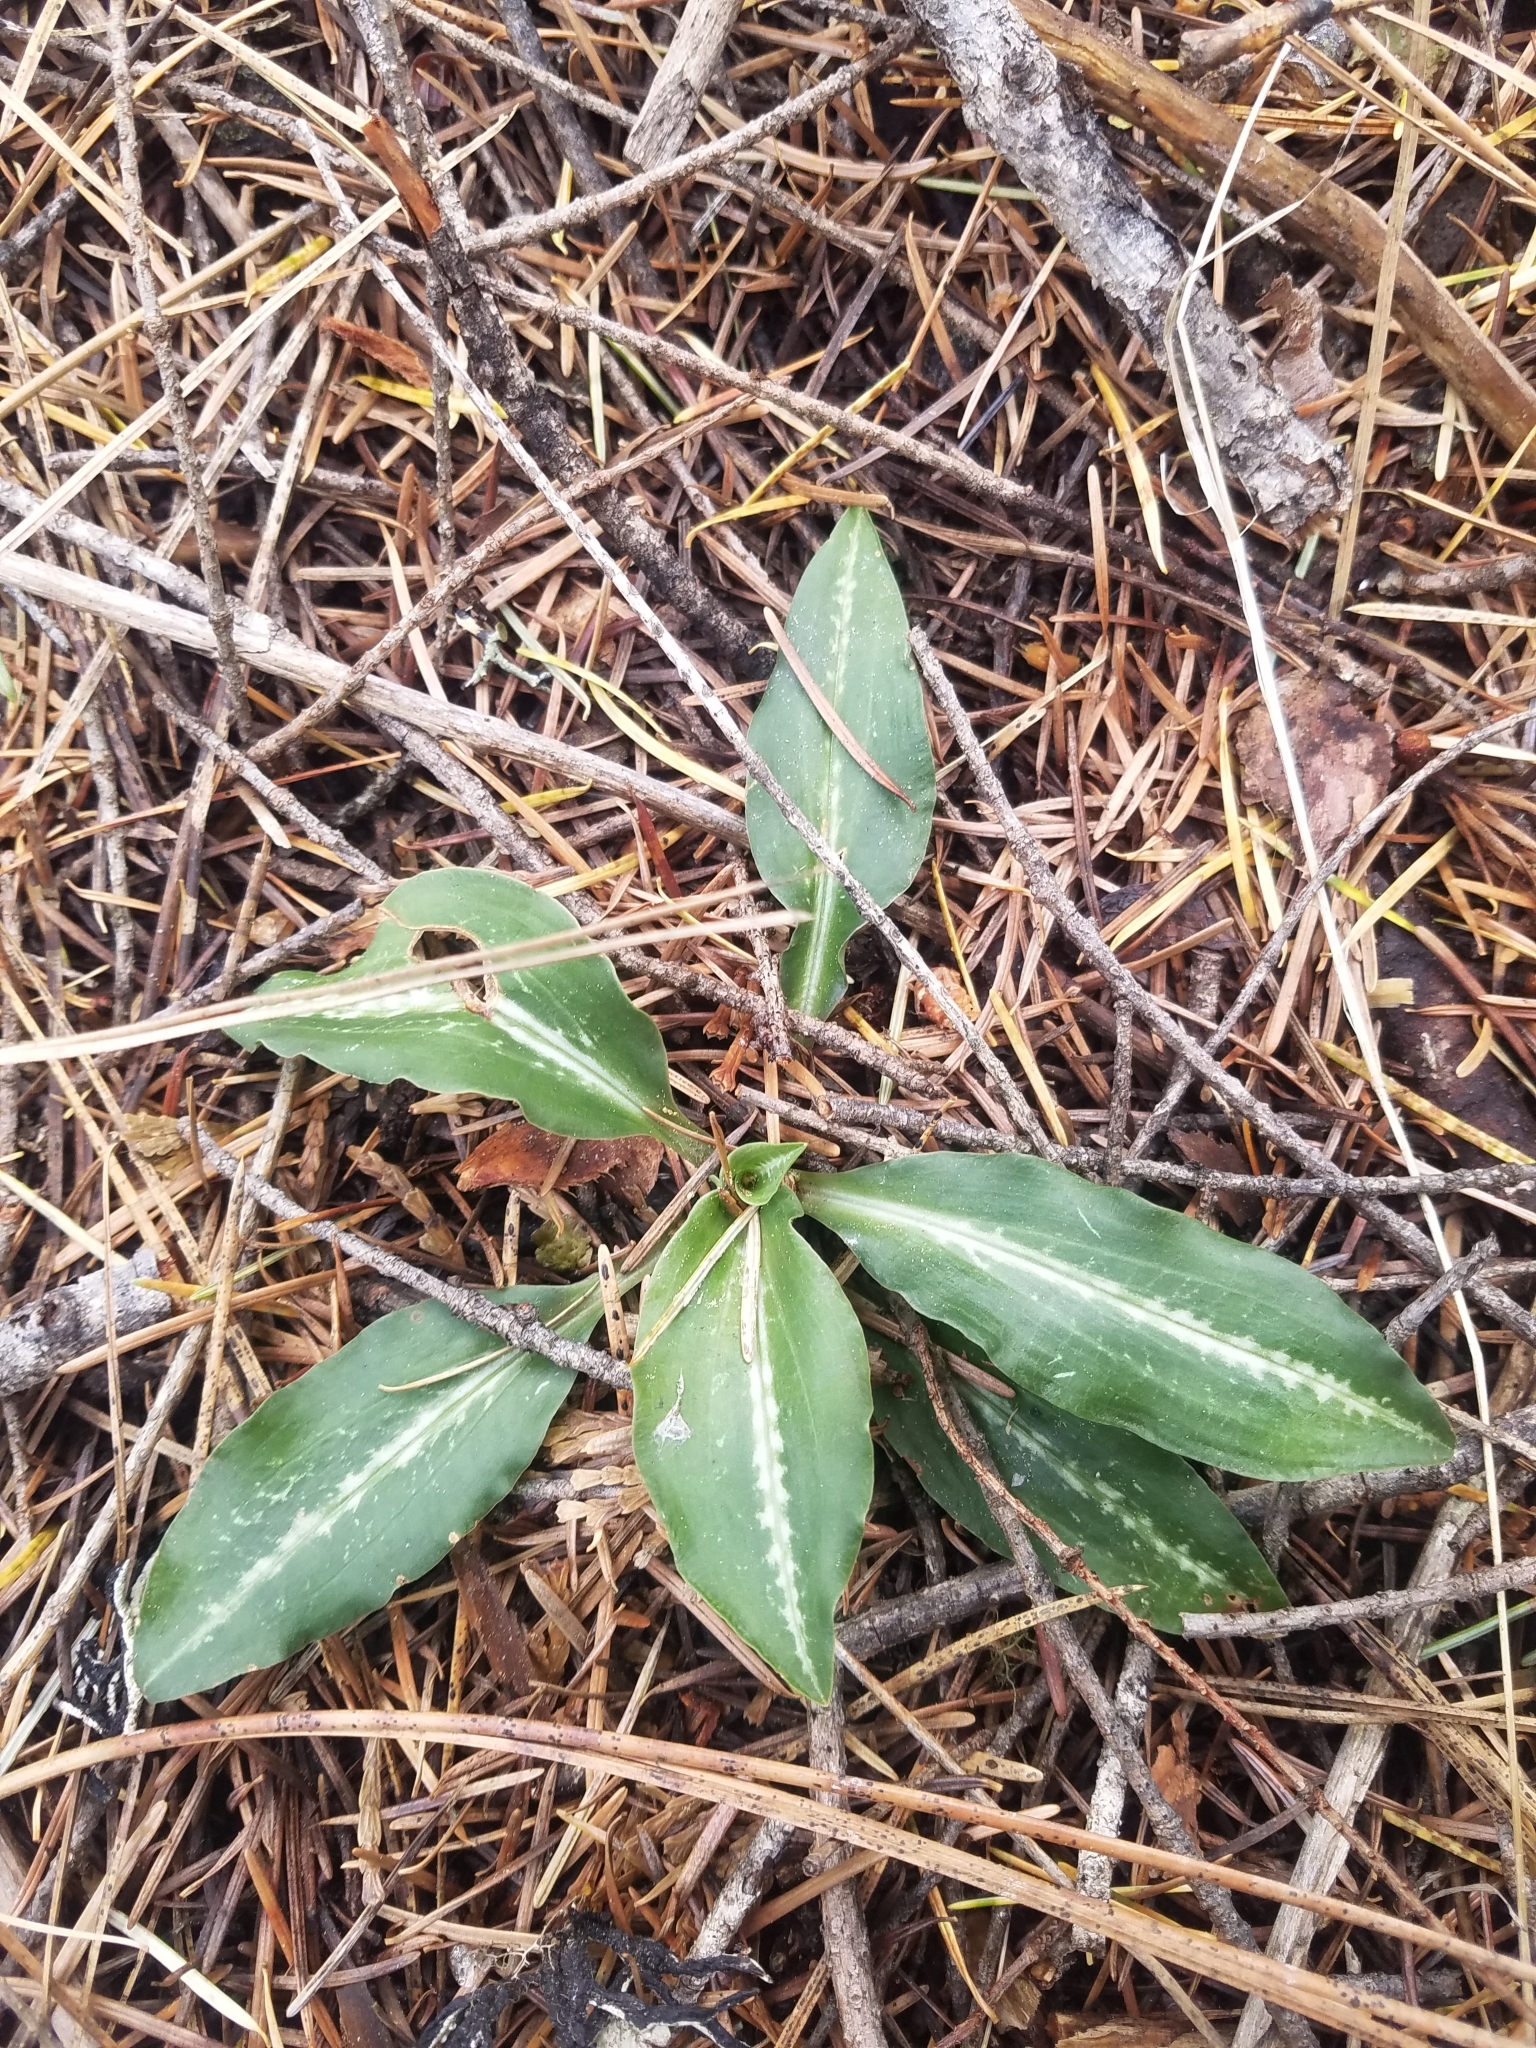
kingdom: Plantae
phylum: Tracheophyta
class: Liliopsida
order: Asparagales
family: Orchidaceae
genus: Goodyera
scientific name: Goodyera oblongifolia
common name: Giant rattlesnake-plantain
